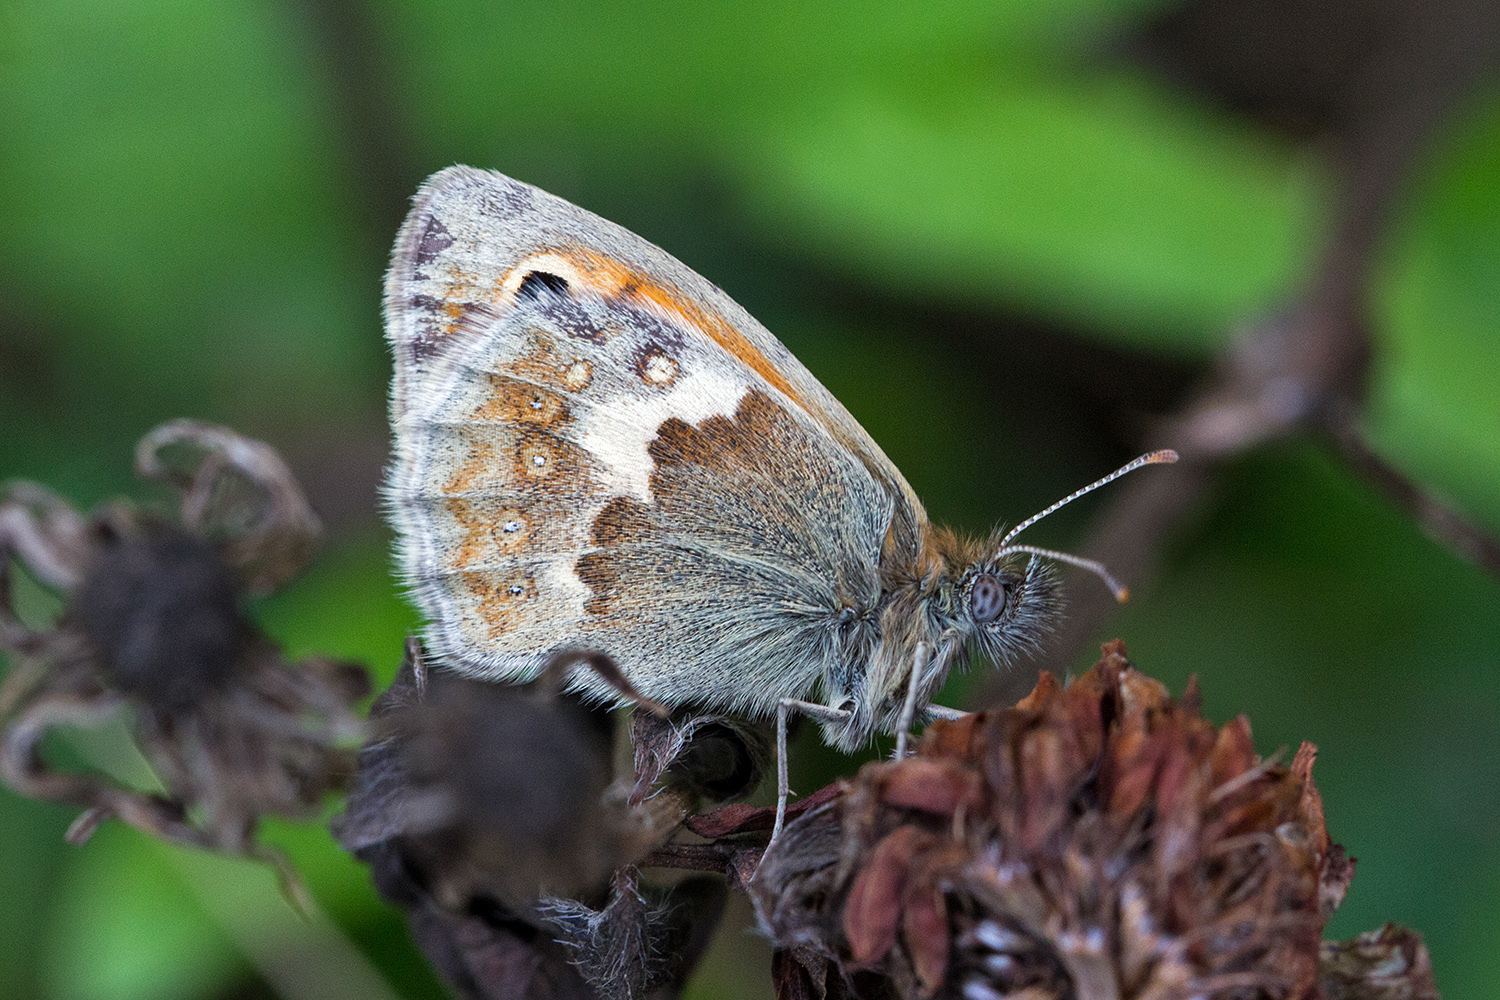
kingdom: Animalia
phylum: Arthropoda
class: Insecta
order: Lepidoptera
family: Nymphalidae
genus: Coenonympha
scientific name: Coenonympha pamphilus
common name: Small heath
